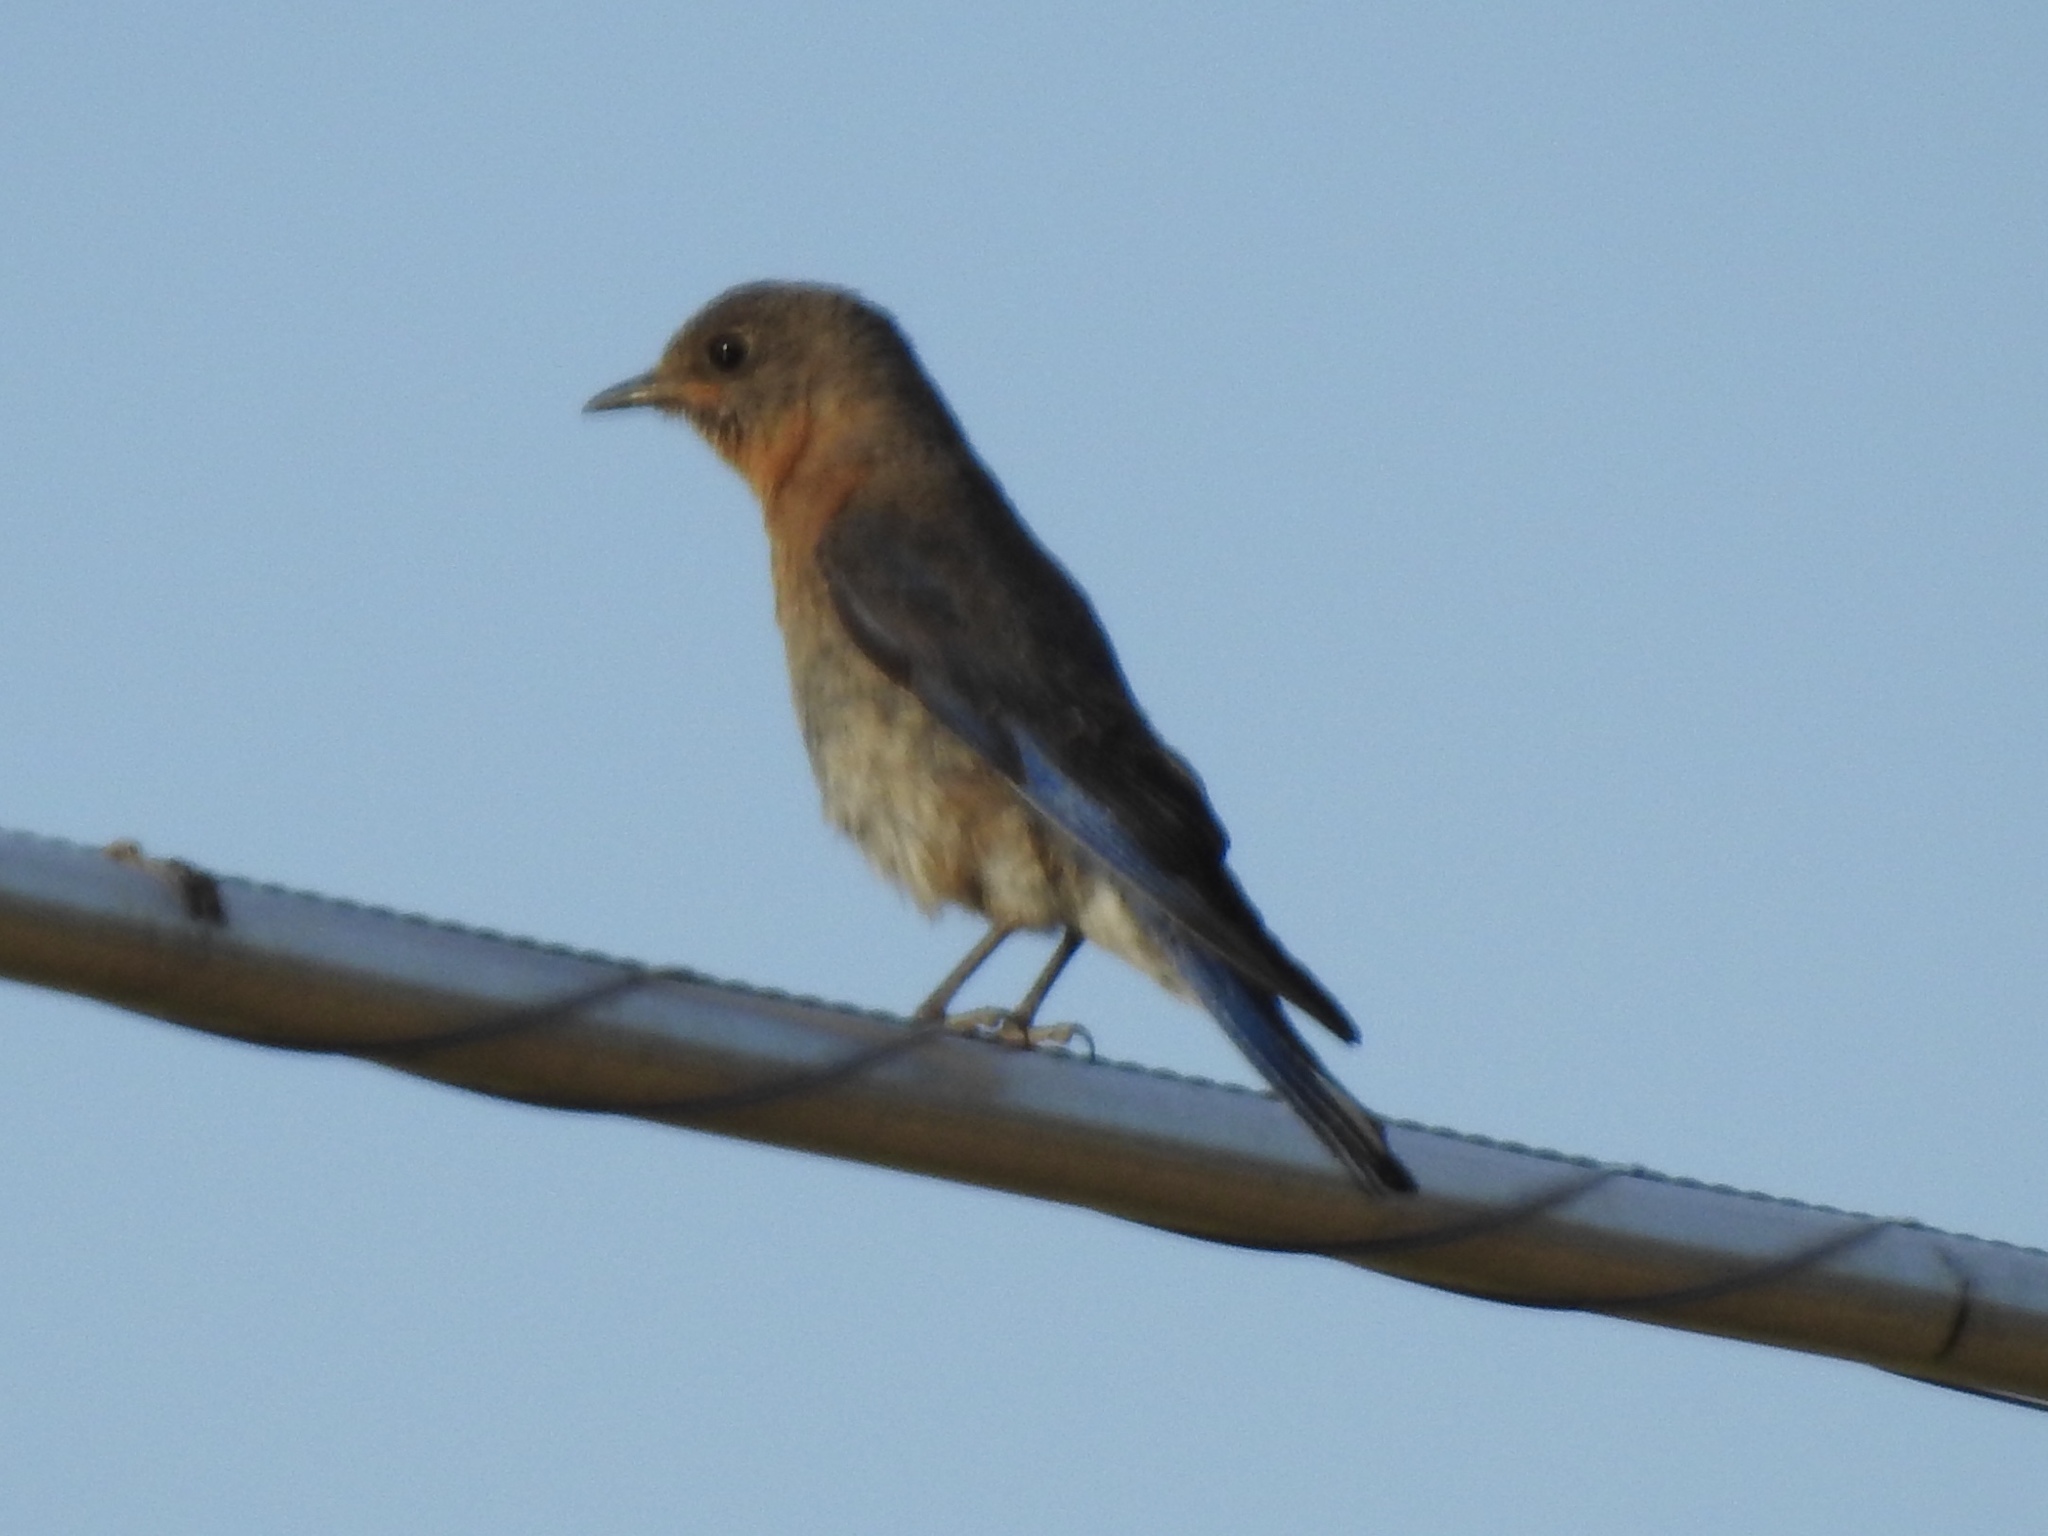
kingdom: Animalia
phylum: Chordata
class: Aves
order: Passeriformes
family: Turdidae
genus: Sialia
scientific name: Sialia sialis
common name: Eastern bluebird
